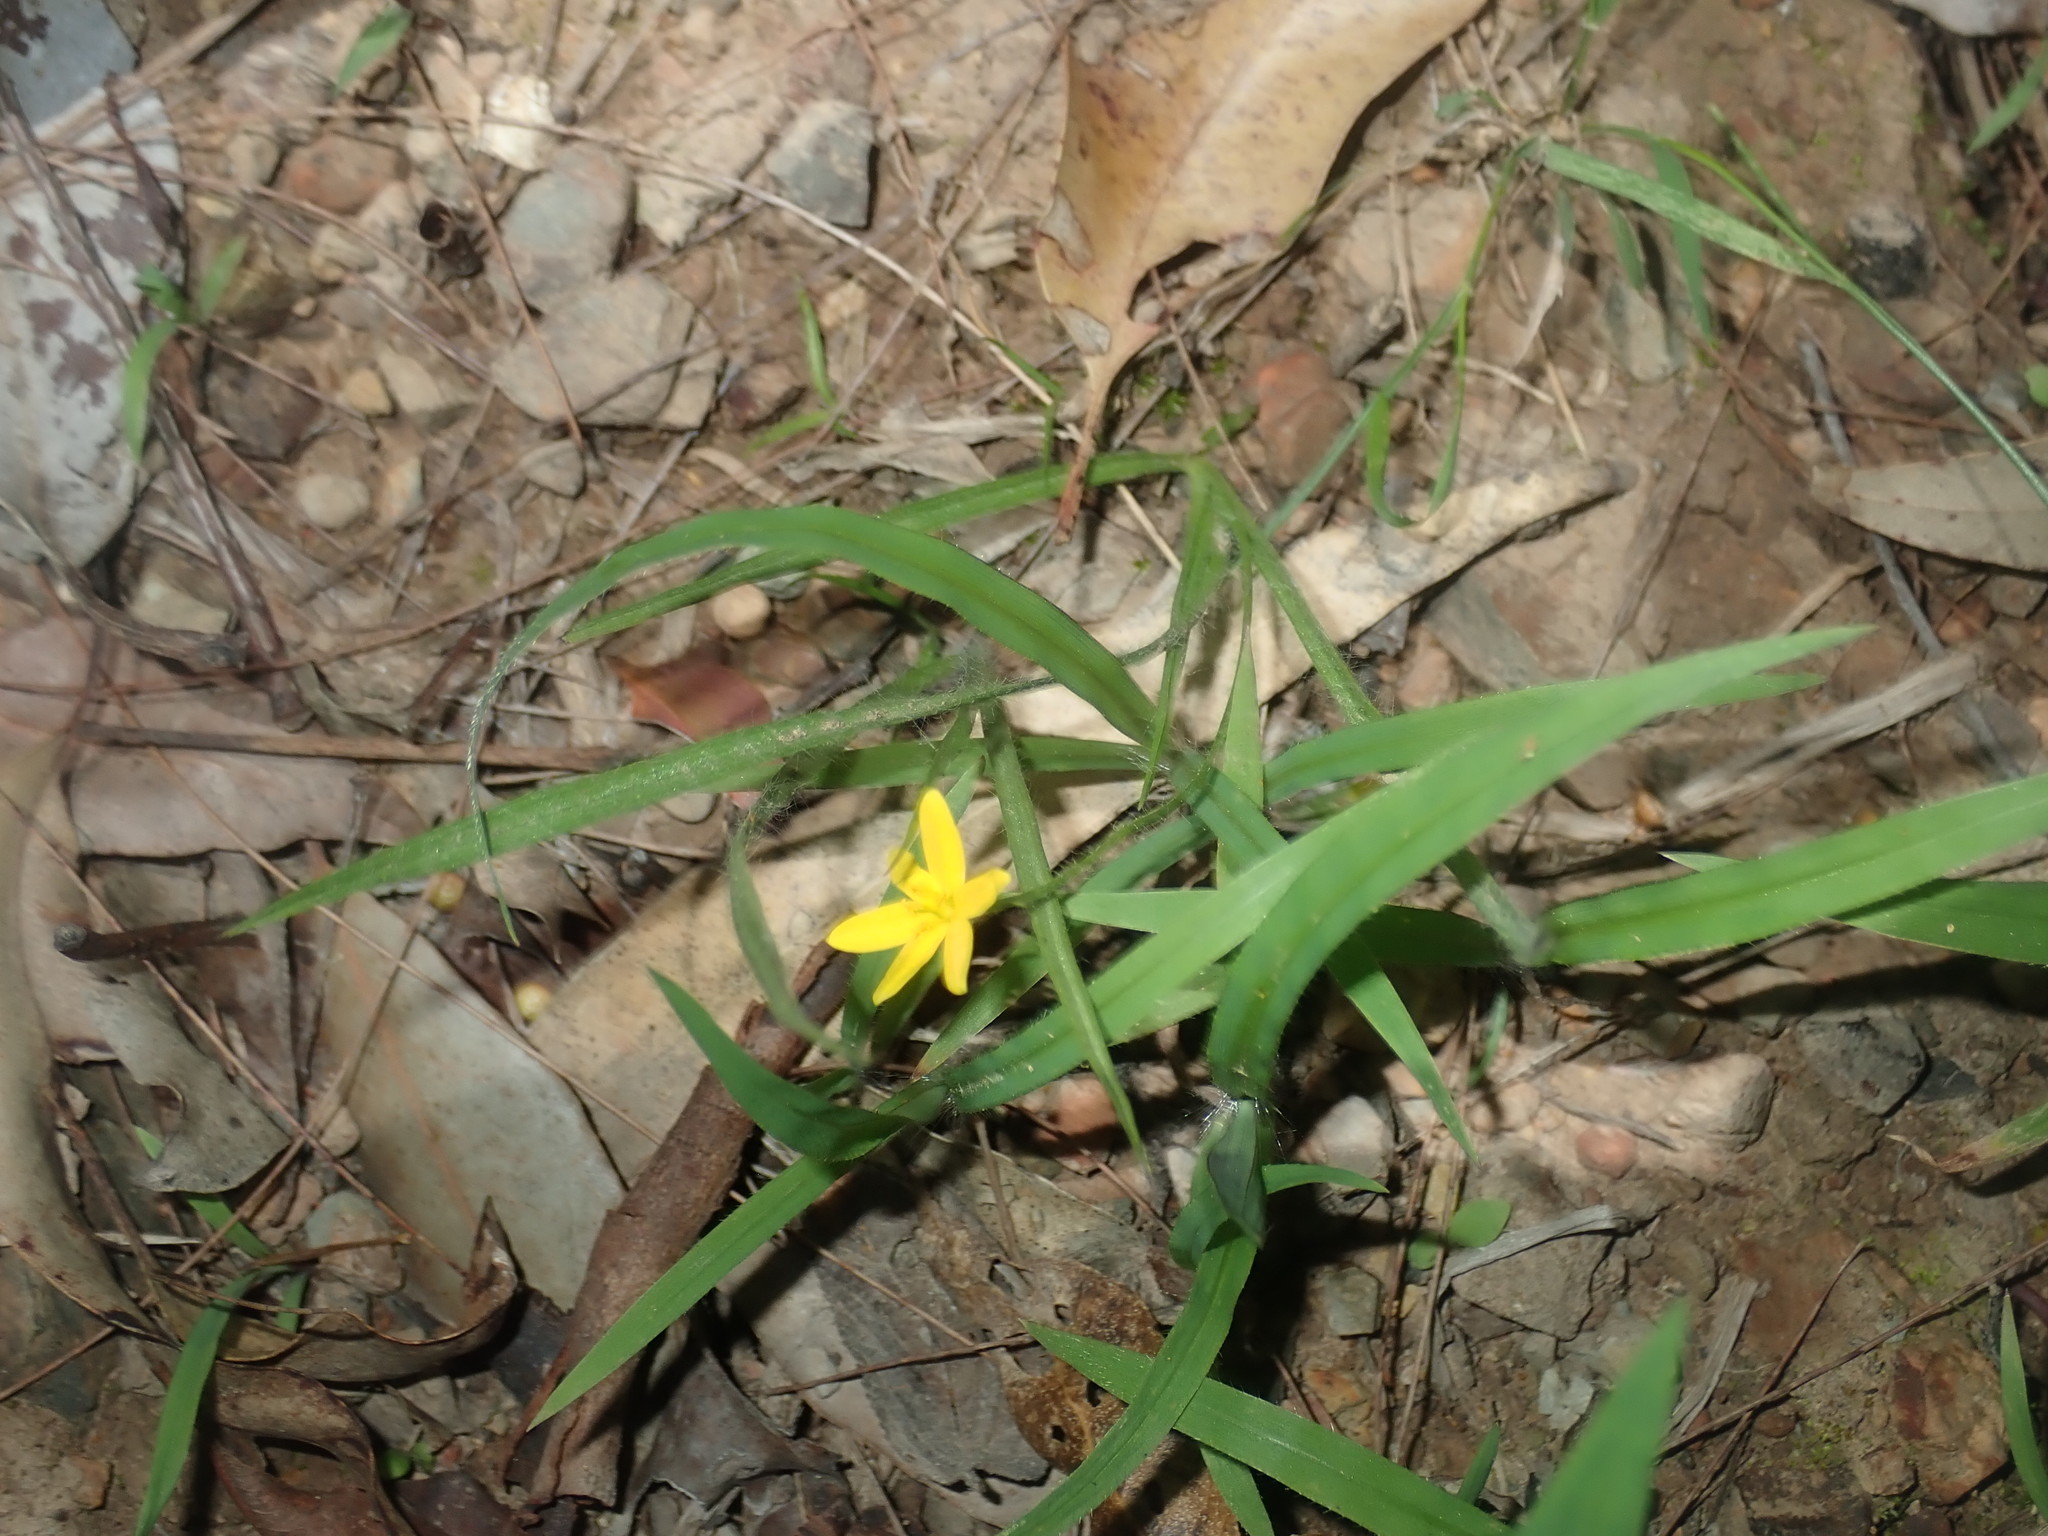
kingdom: Plantae
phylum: Tracheophyta
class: Liliopsida
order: Asparagales
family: Hypoxidaceae
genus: Hypoxis
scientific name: Hypoxis hygrometrica
